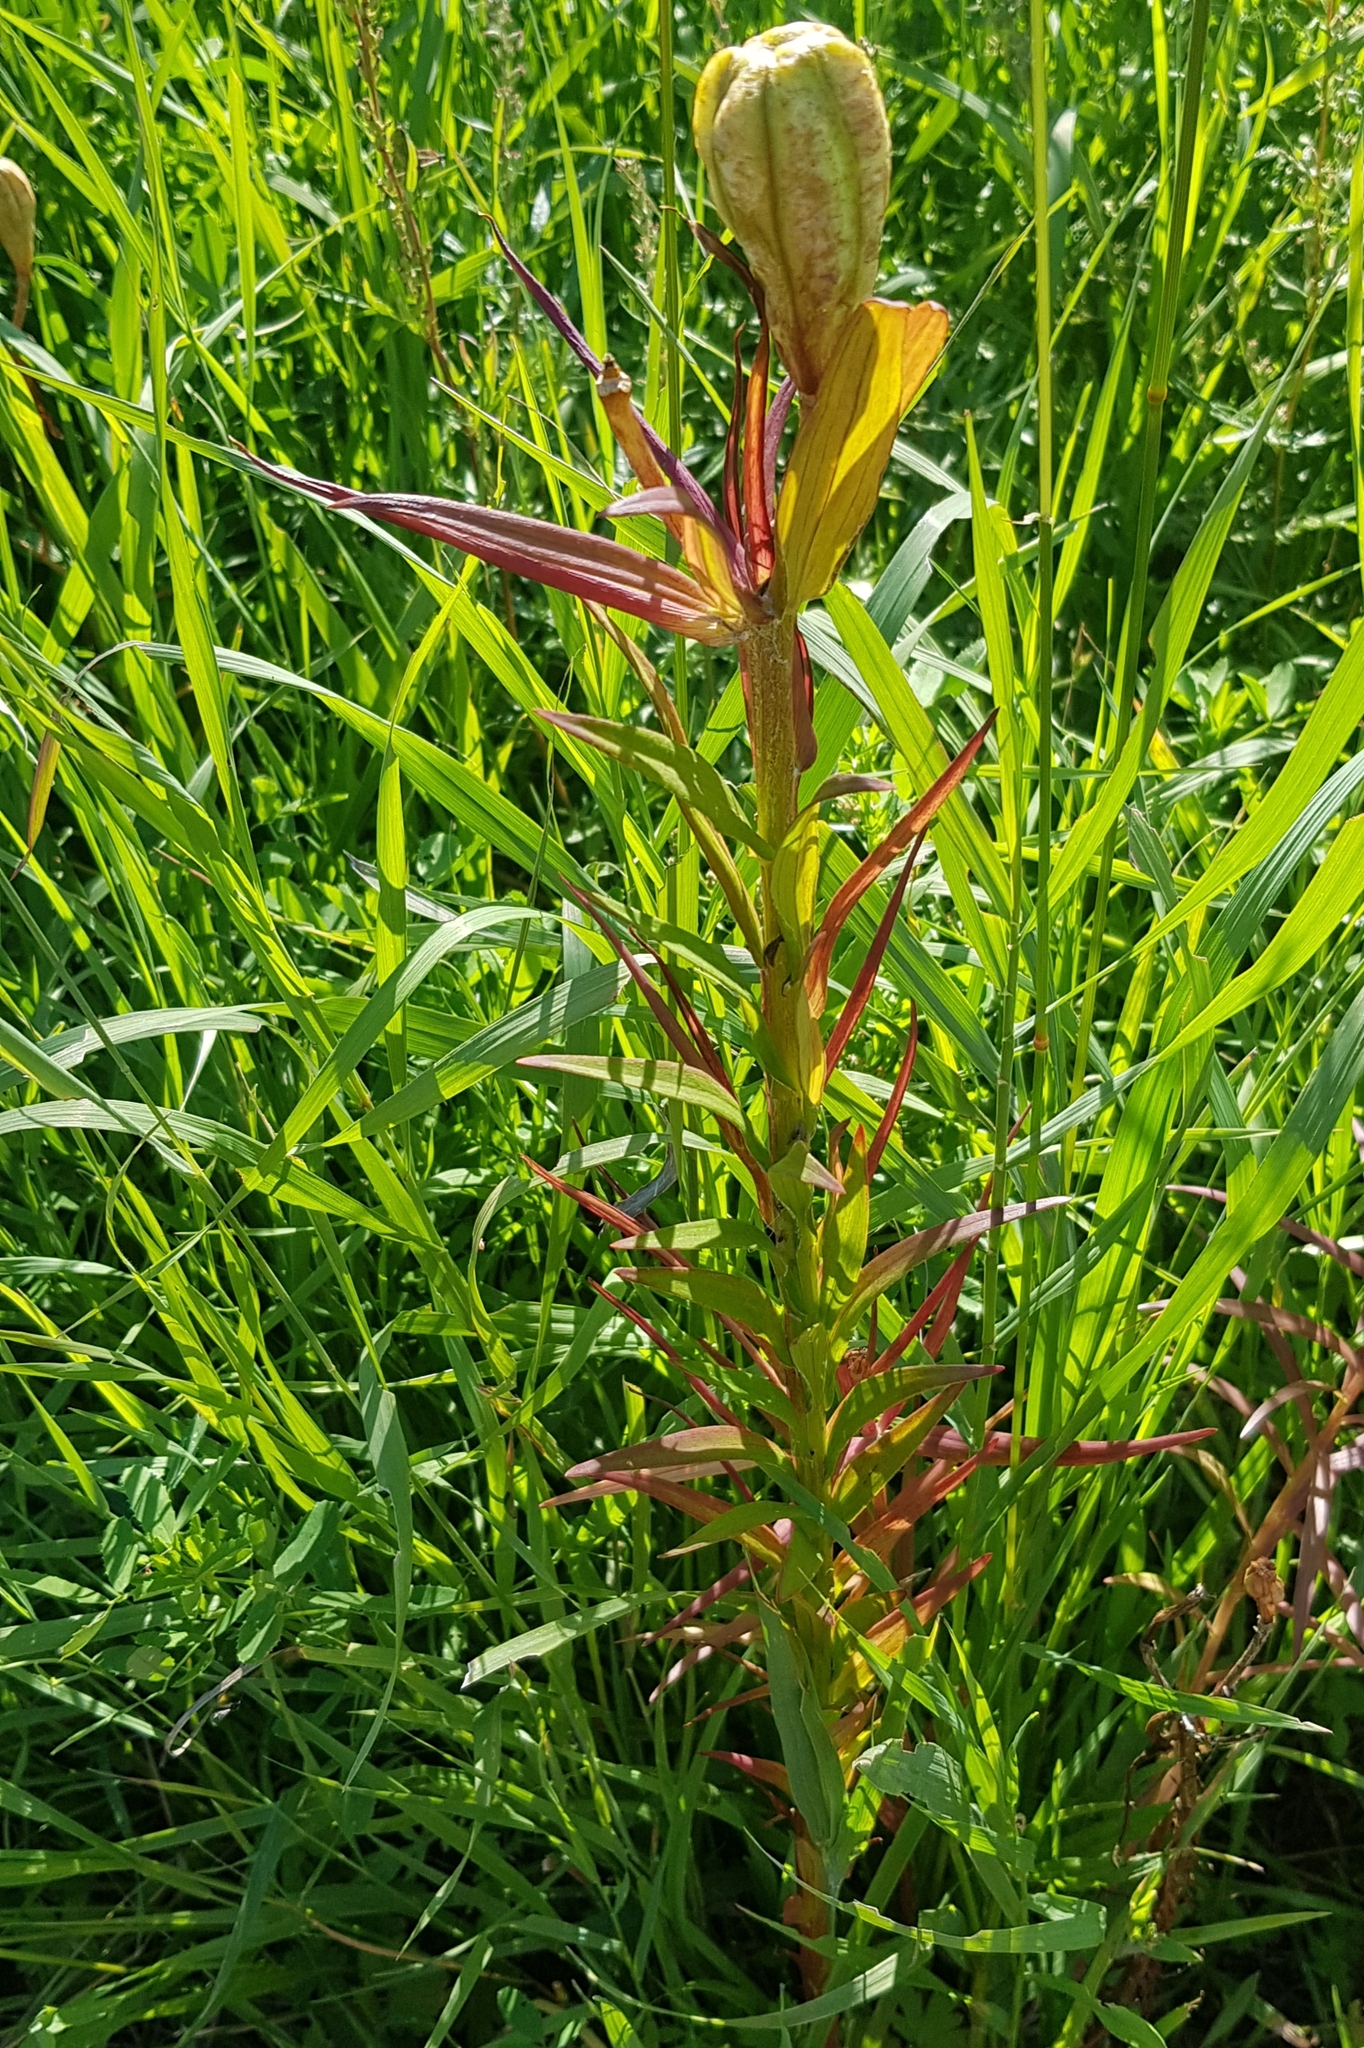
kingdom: Plantae
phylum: Tracheophyta
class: Liliopsida
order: Liliales
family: Liliaceae
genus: Lilium
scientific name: Lilium pensylvanicum
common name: Candlestick lily
